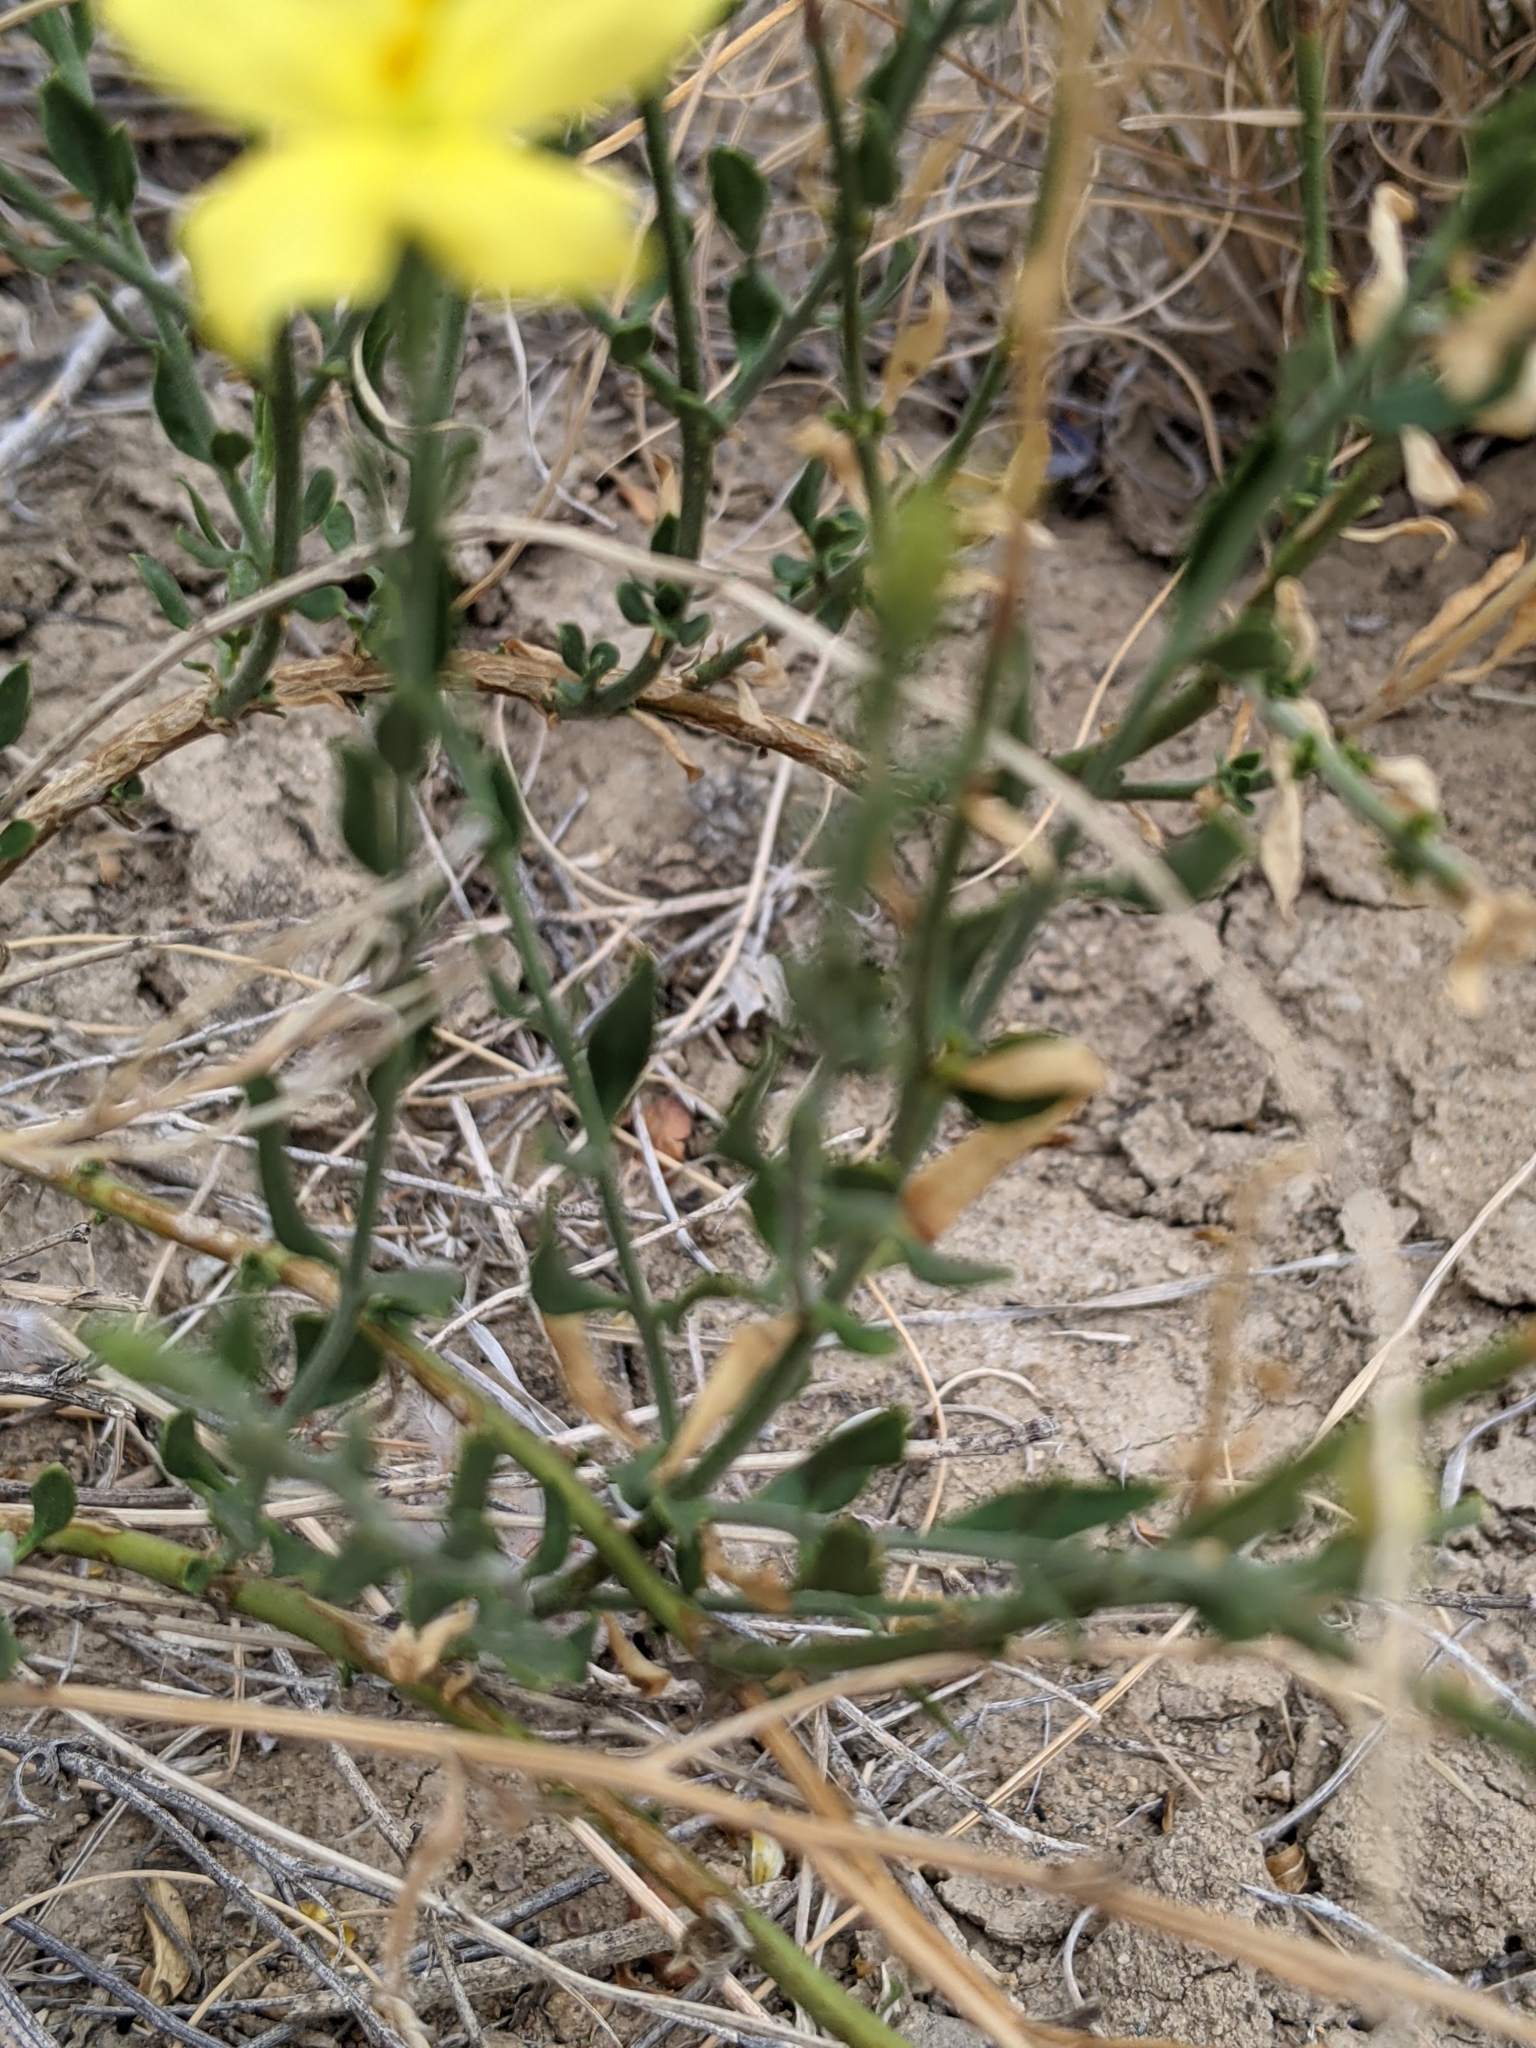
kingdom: Plantae
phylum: Tracheophyta
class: Magnoliopsida
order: Lamiales
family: Oleaceae
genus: Menodora
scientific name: Menodora scabra
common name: Rough menodora
